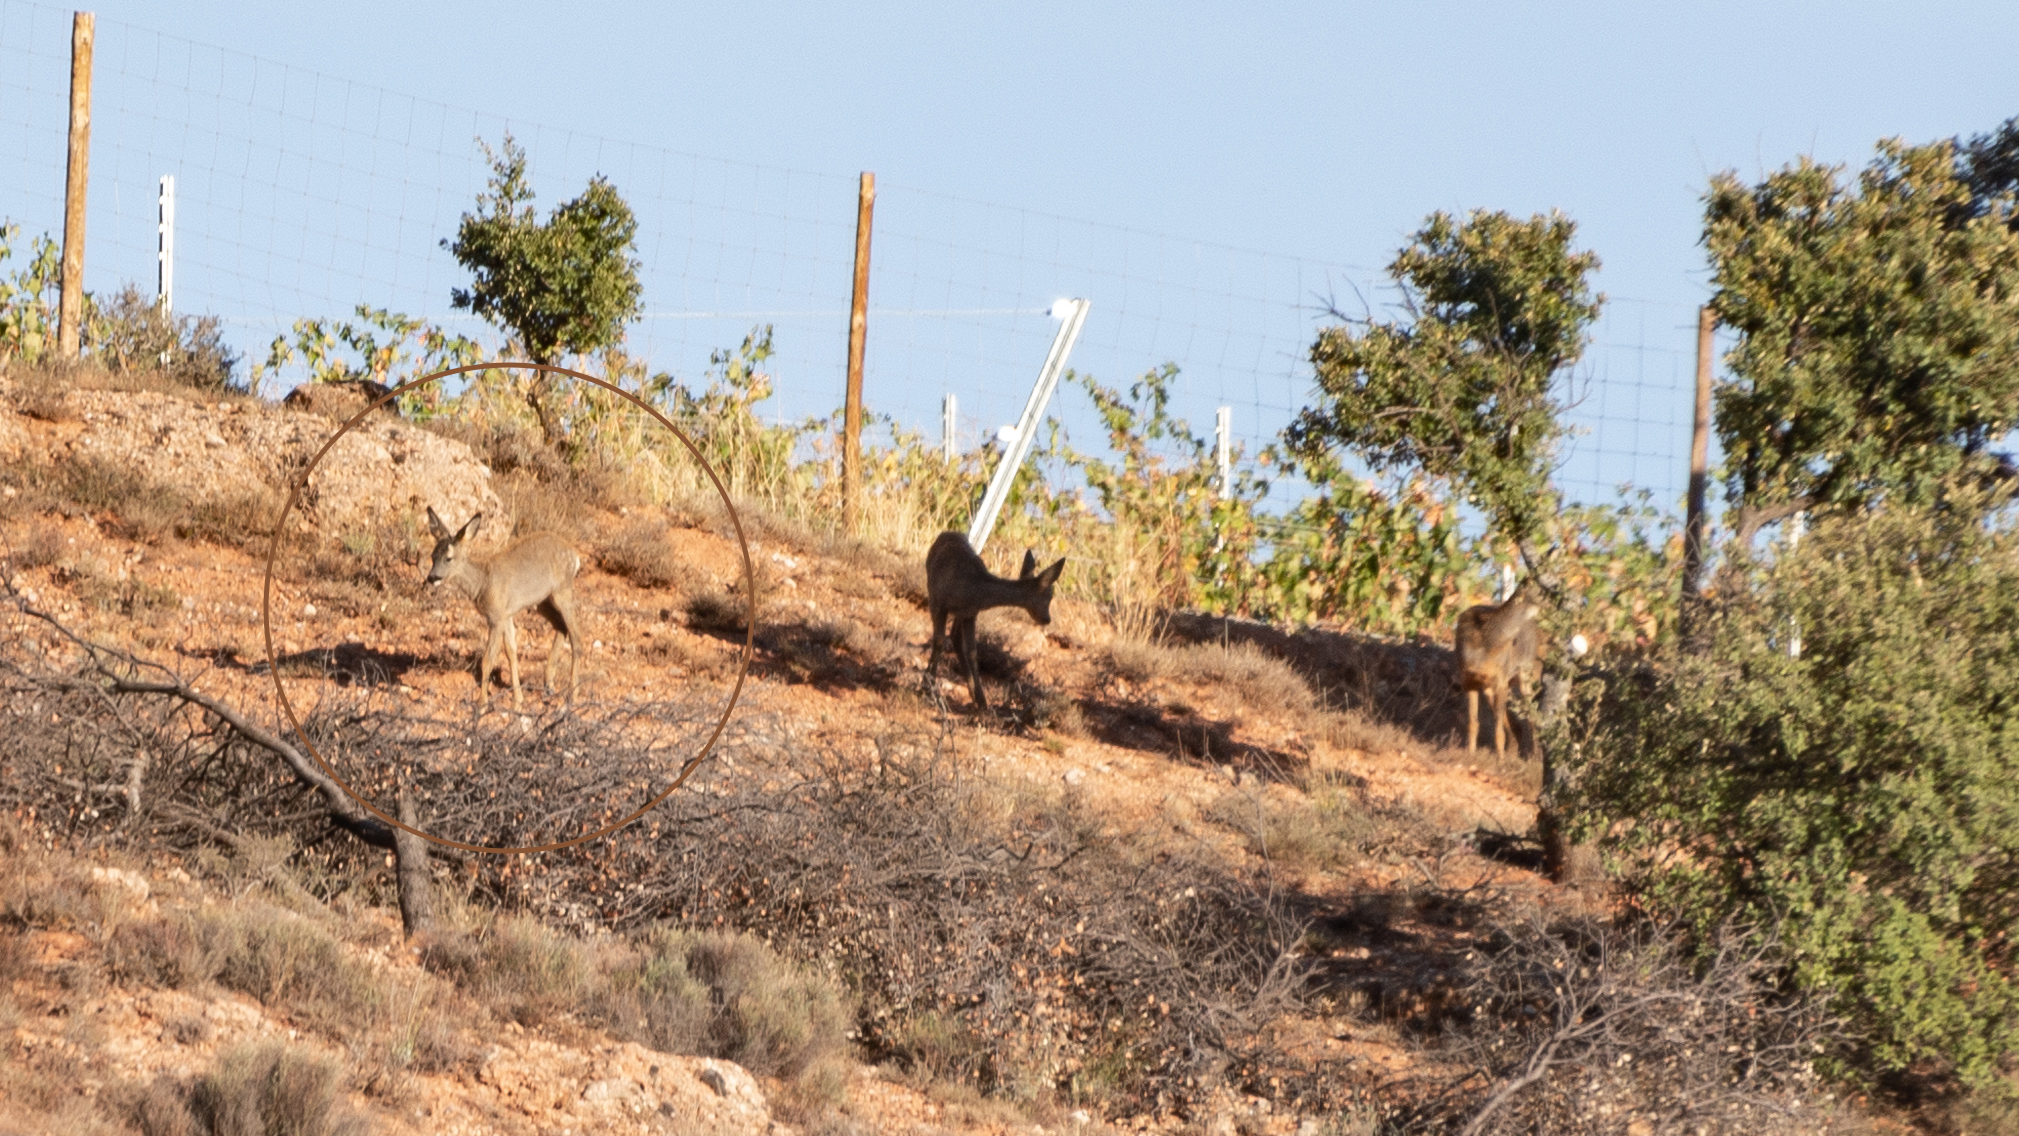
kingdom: Animalia
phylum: Chordata
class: Mammalia
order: Artiodactyla
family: Cervidae
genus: Capreolus
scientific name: Capreolus capreolus
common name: Western roe deer
